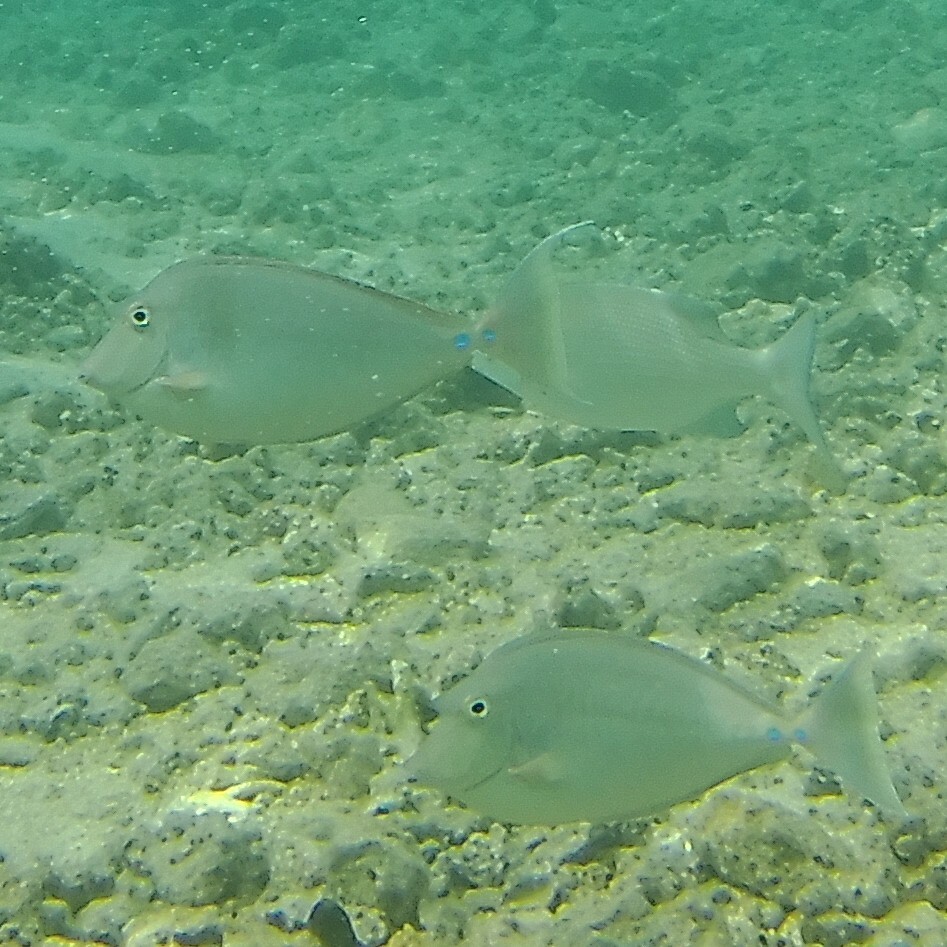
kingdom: Animalia
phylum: Chordata
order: Perciformes
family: Acanthuridae
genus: Naso
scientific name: Naso unicornis
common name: Bluespine unicornfish
